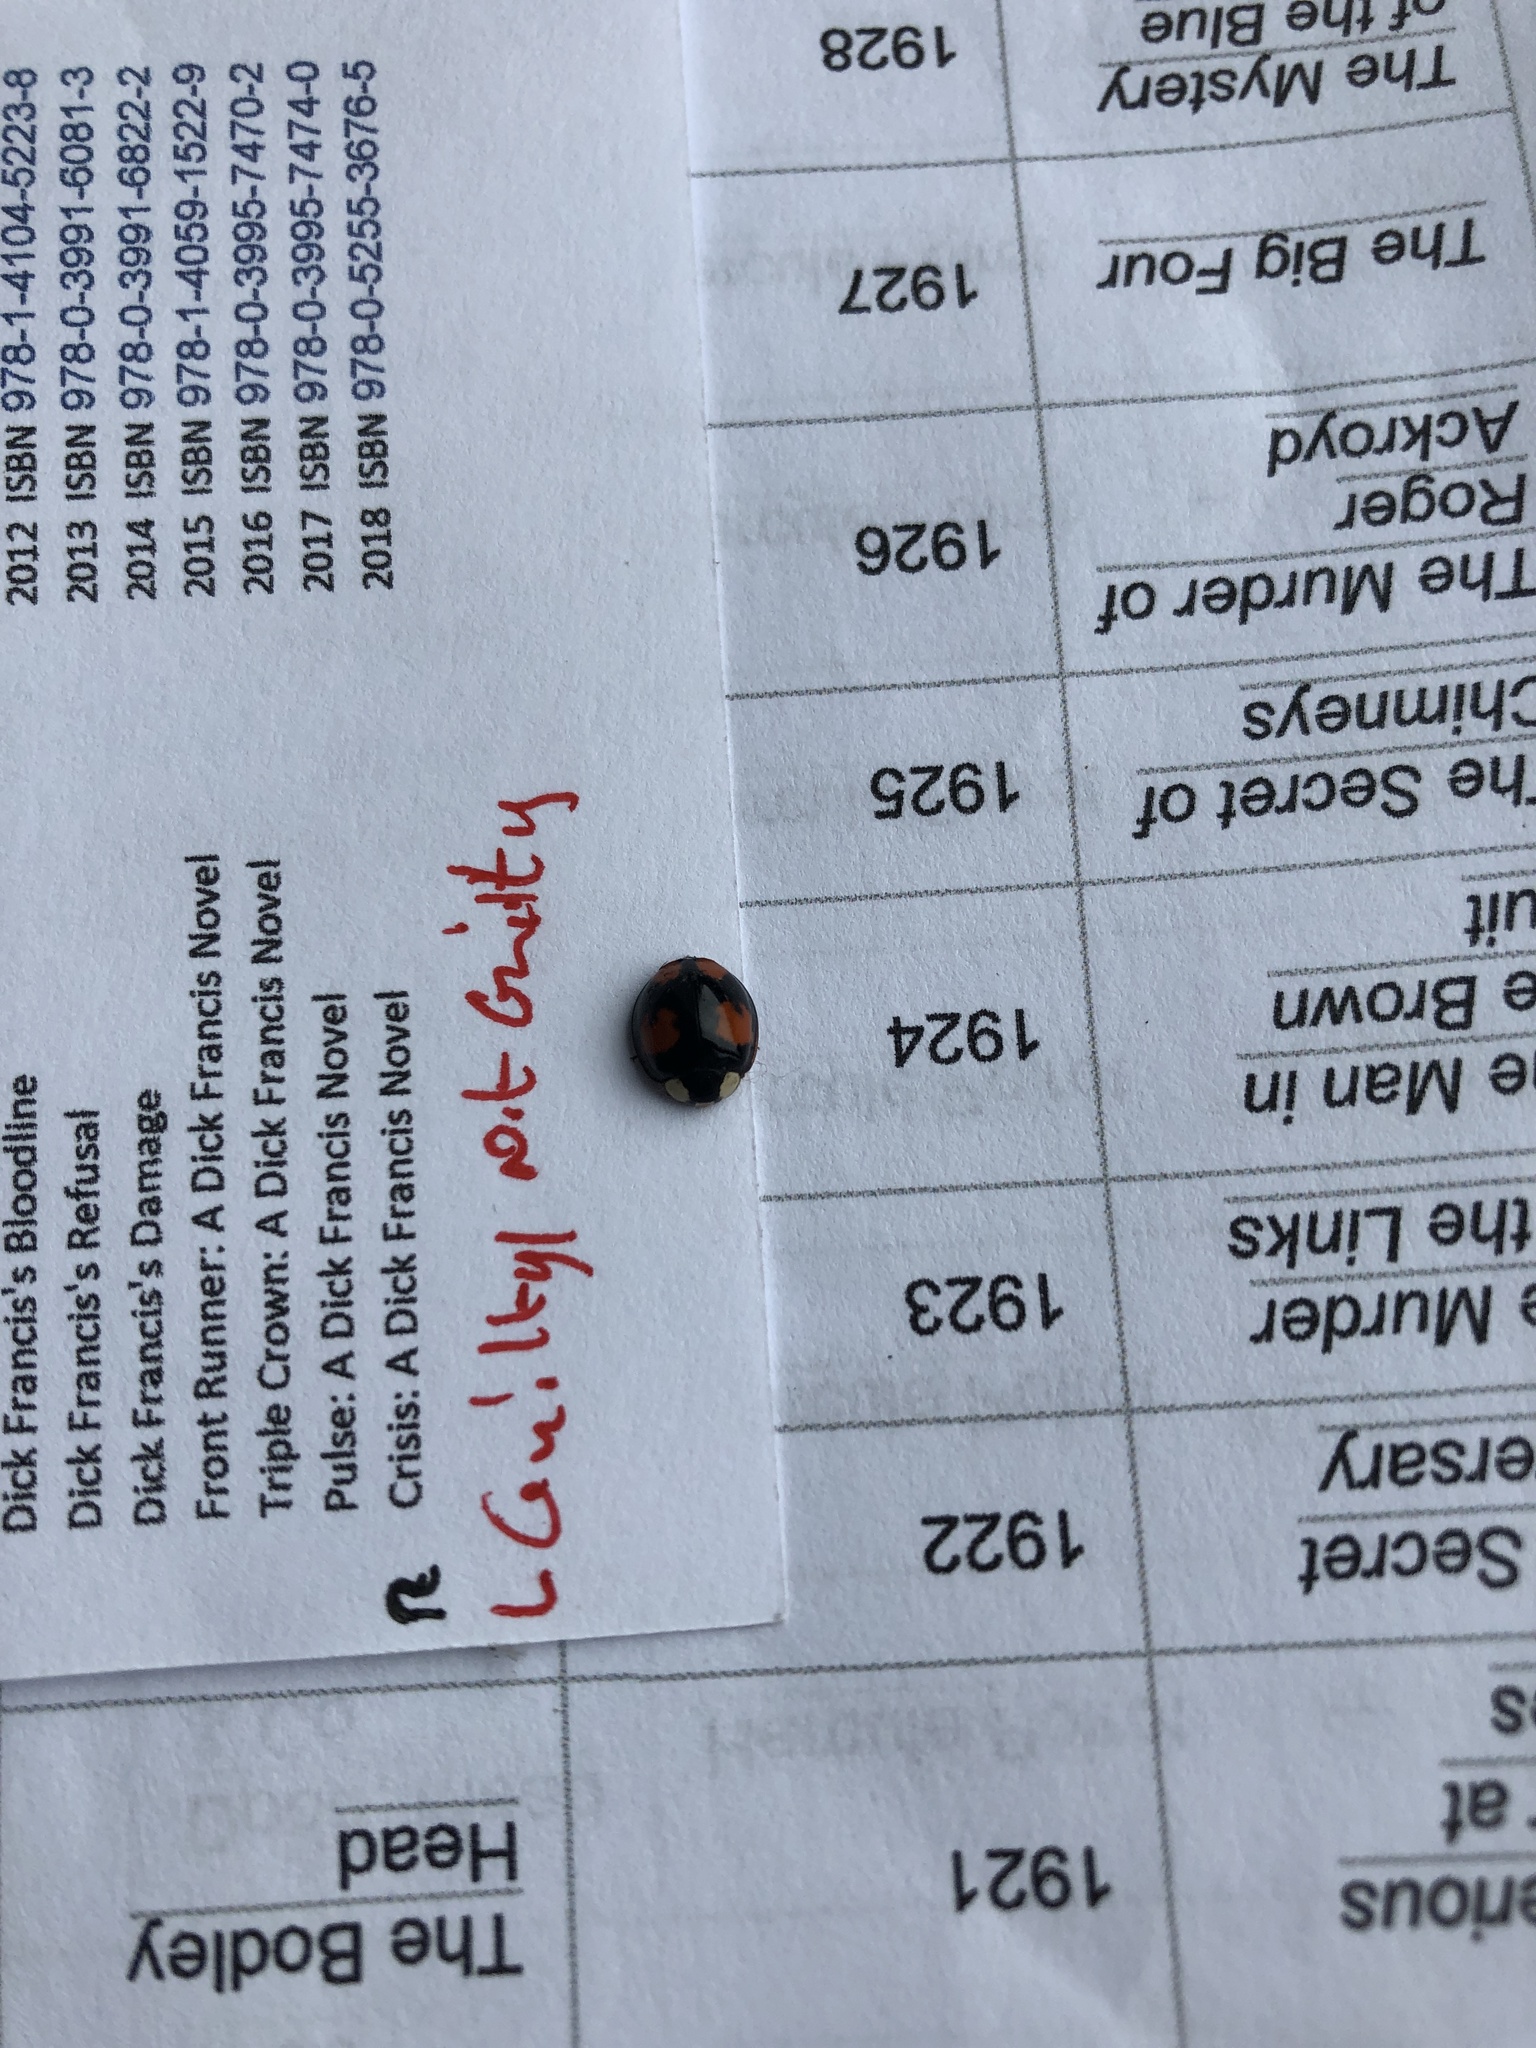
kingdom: Animalia
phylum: Arthropoda
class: Insecta
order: Coleoptera
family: Coccinellidae
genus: Harmonia
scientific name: Harmonia axyridis
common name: Harlequin ladybird
